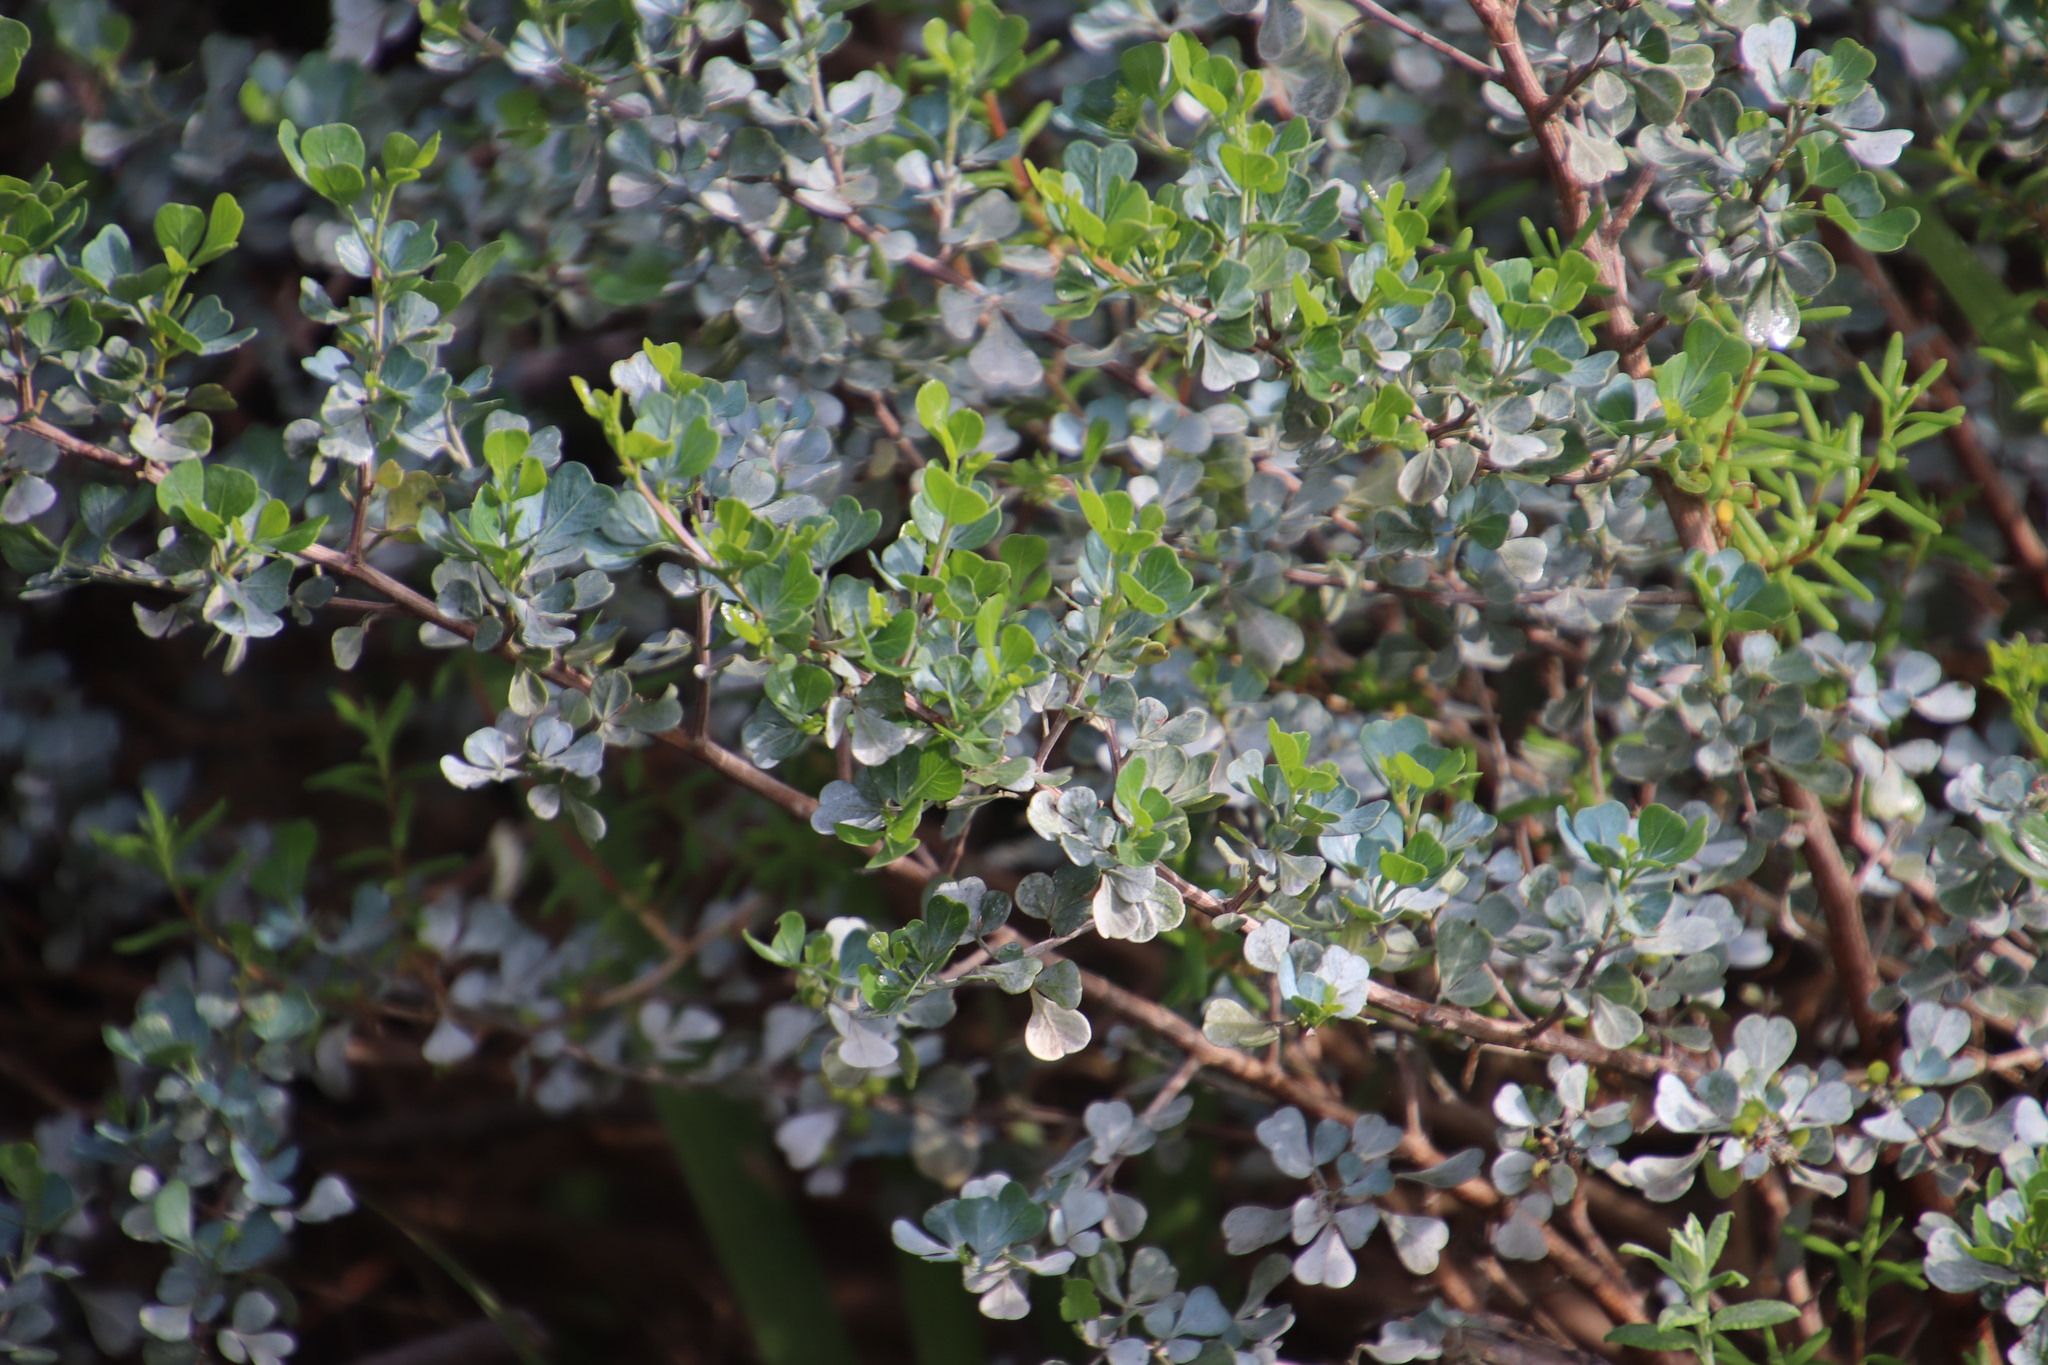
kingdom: Plantae
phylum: Tracheophyta
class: Magnoliopsida
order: Sapindales
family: Anacardiaceae
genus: Searsia
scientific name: Searsia glauca
